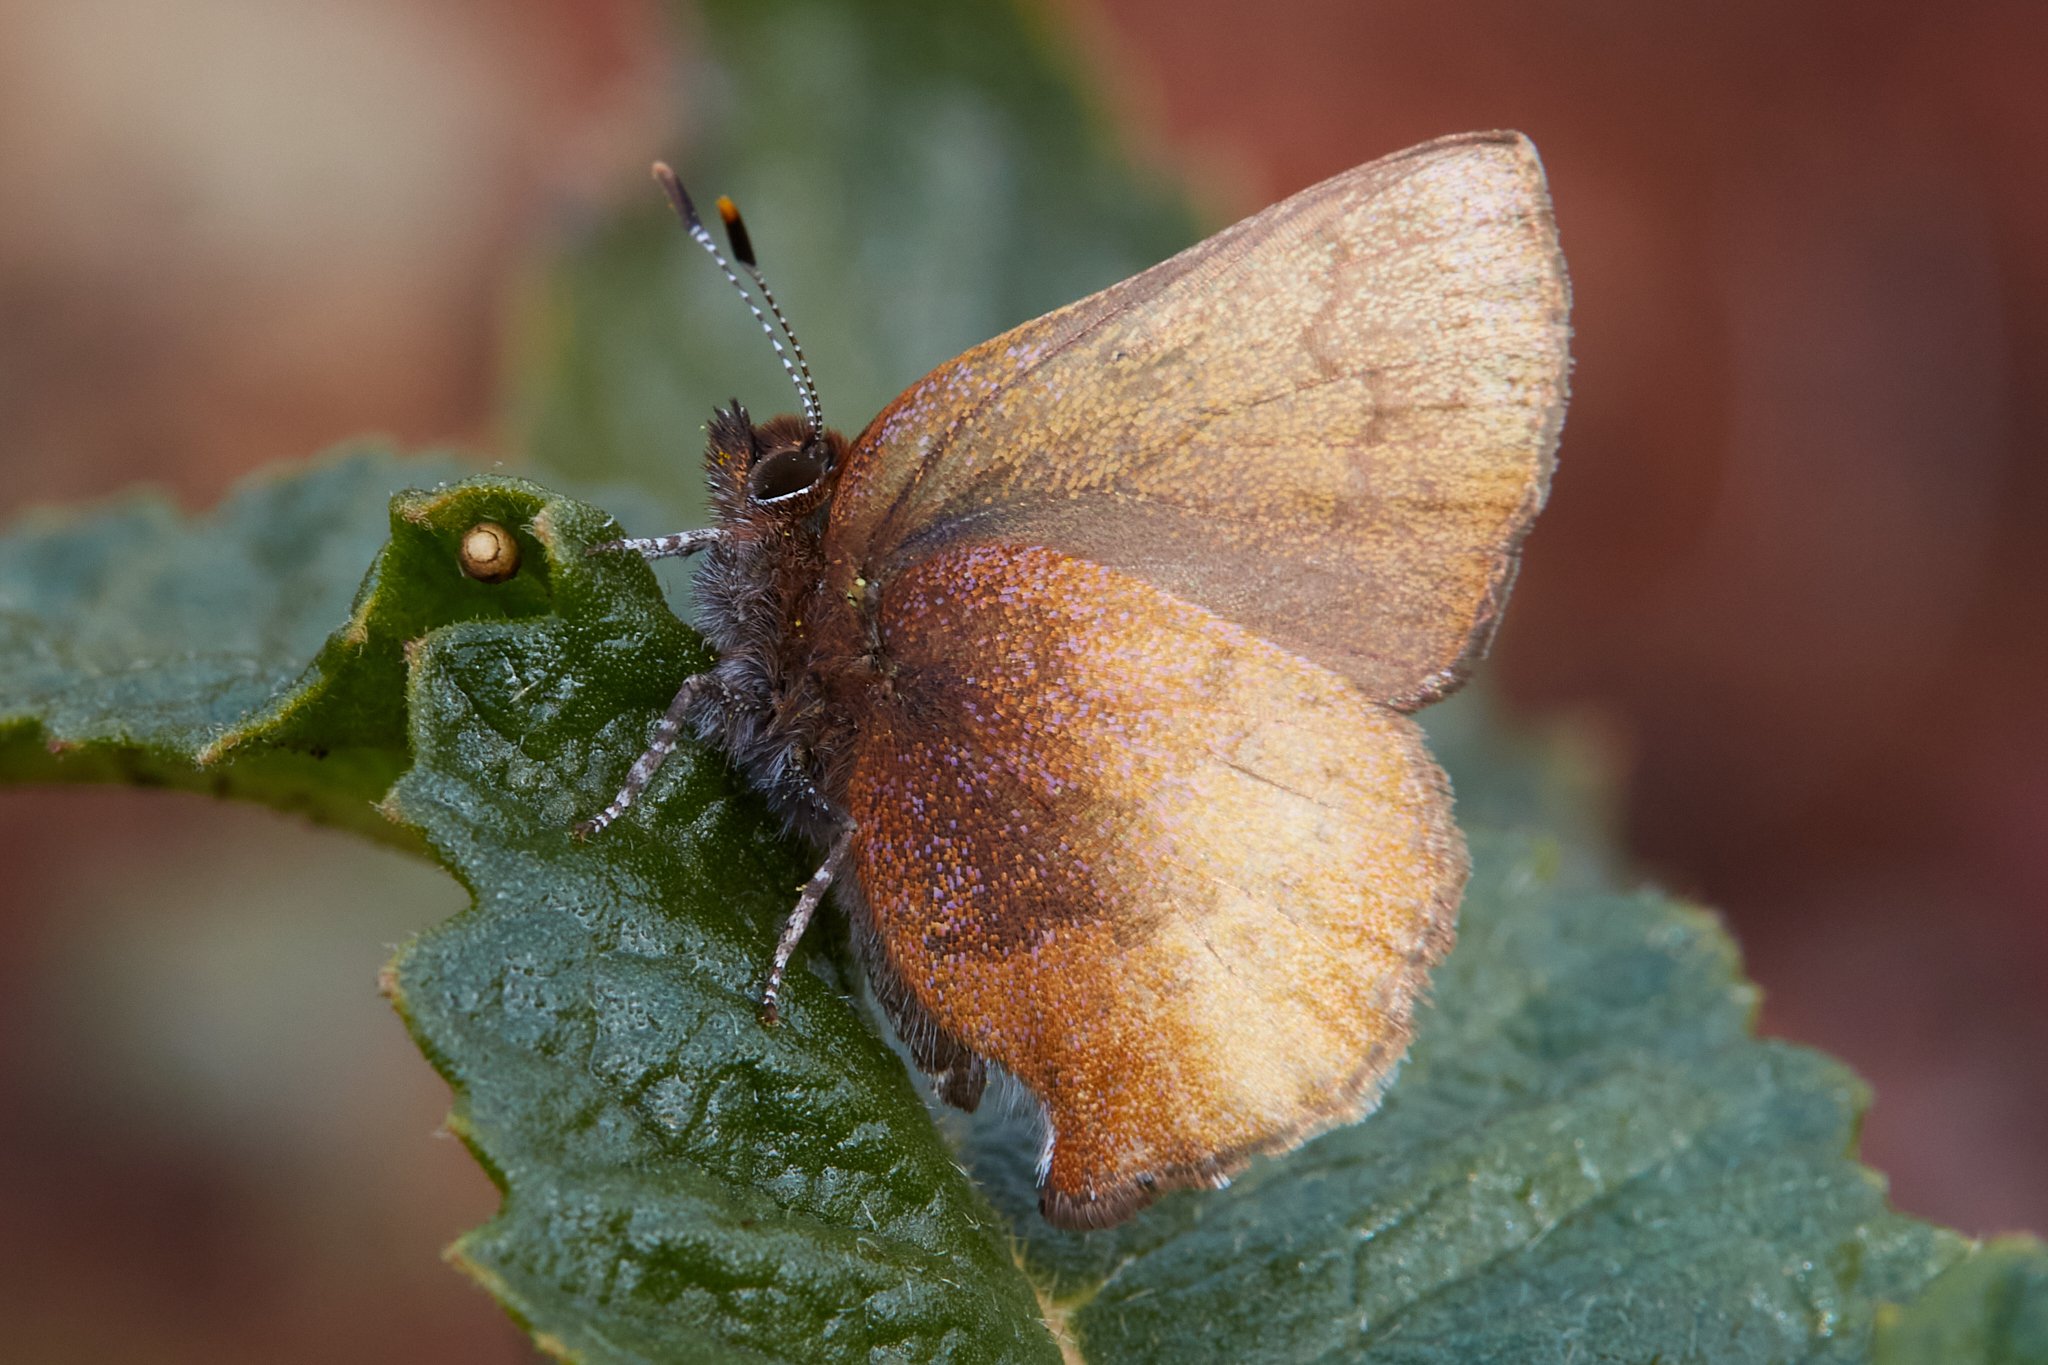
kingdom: Animalia
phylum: Arthropoda
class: Insecta
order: Lepidoptera
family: Lycaenidae
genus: Incisalia
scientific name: Incisalia irioides
